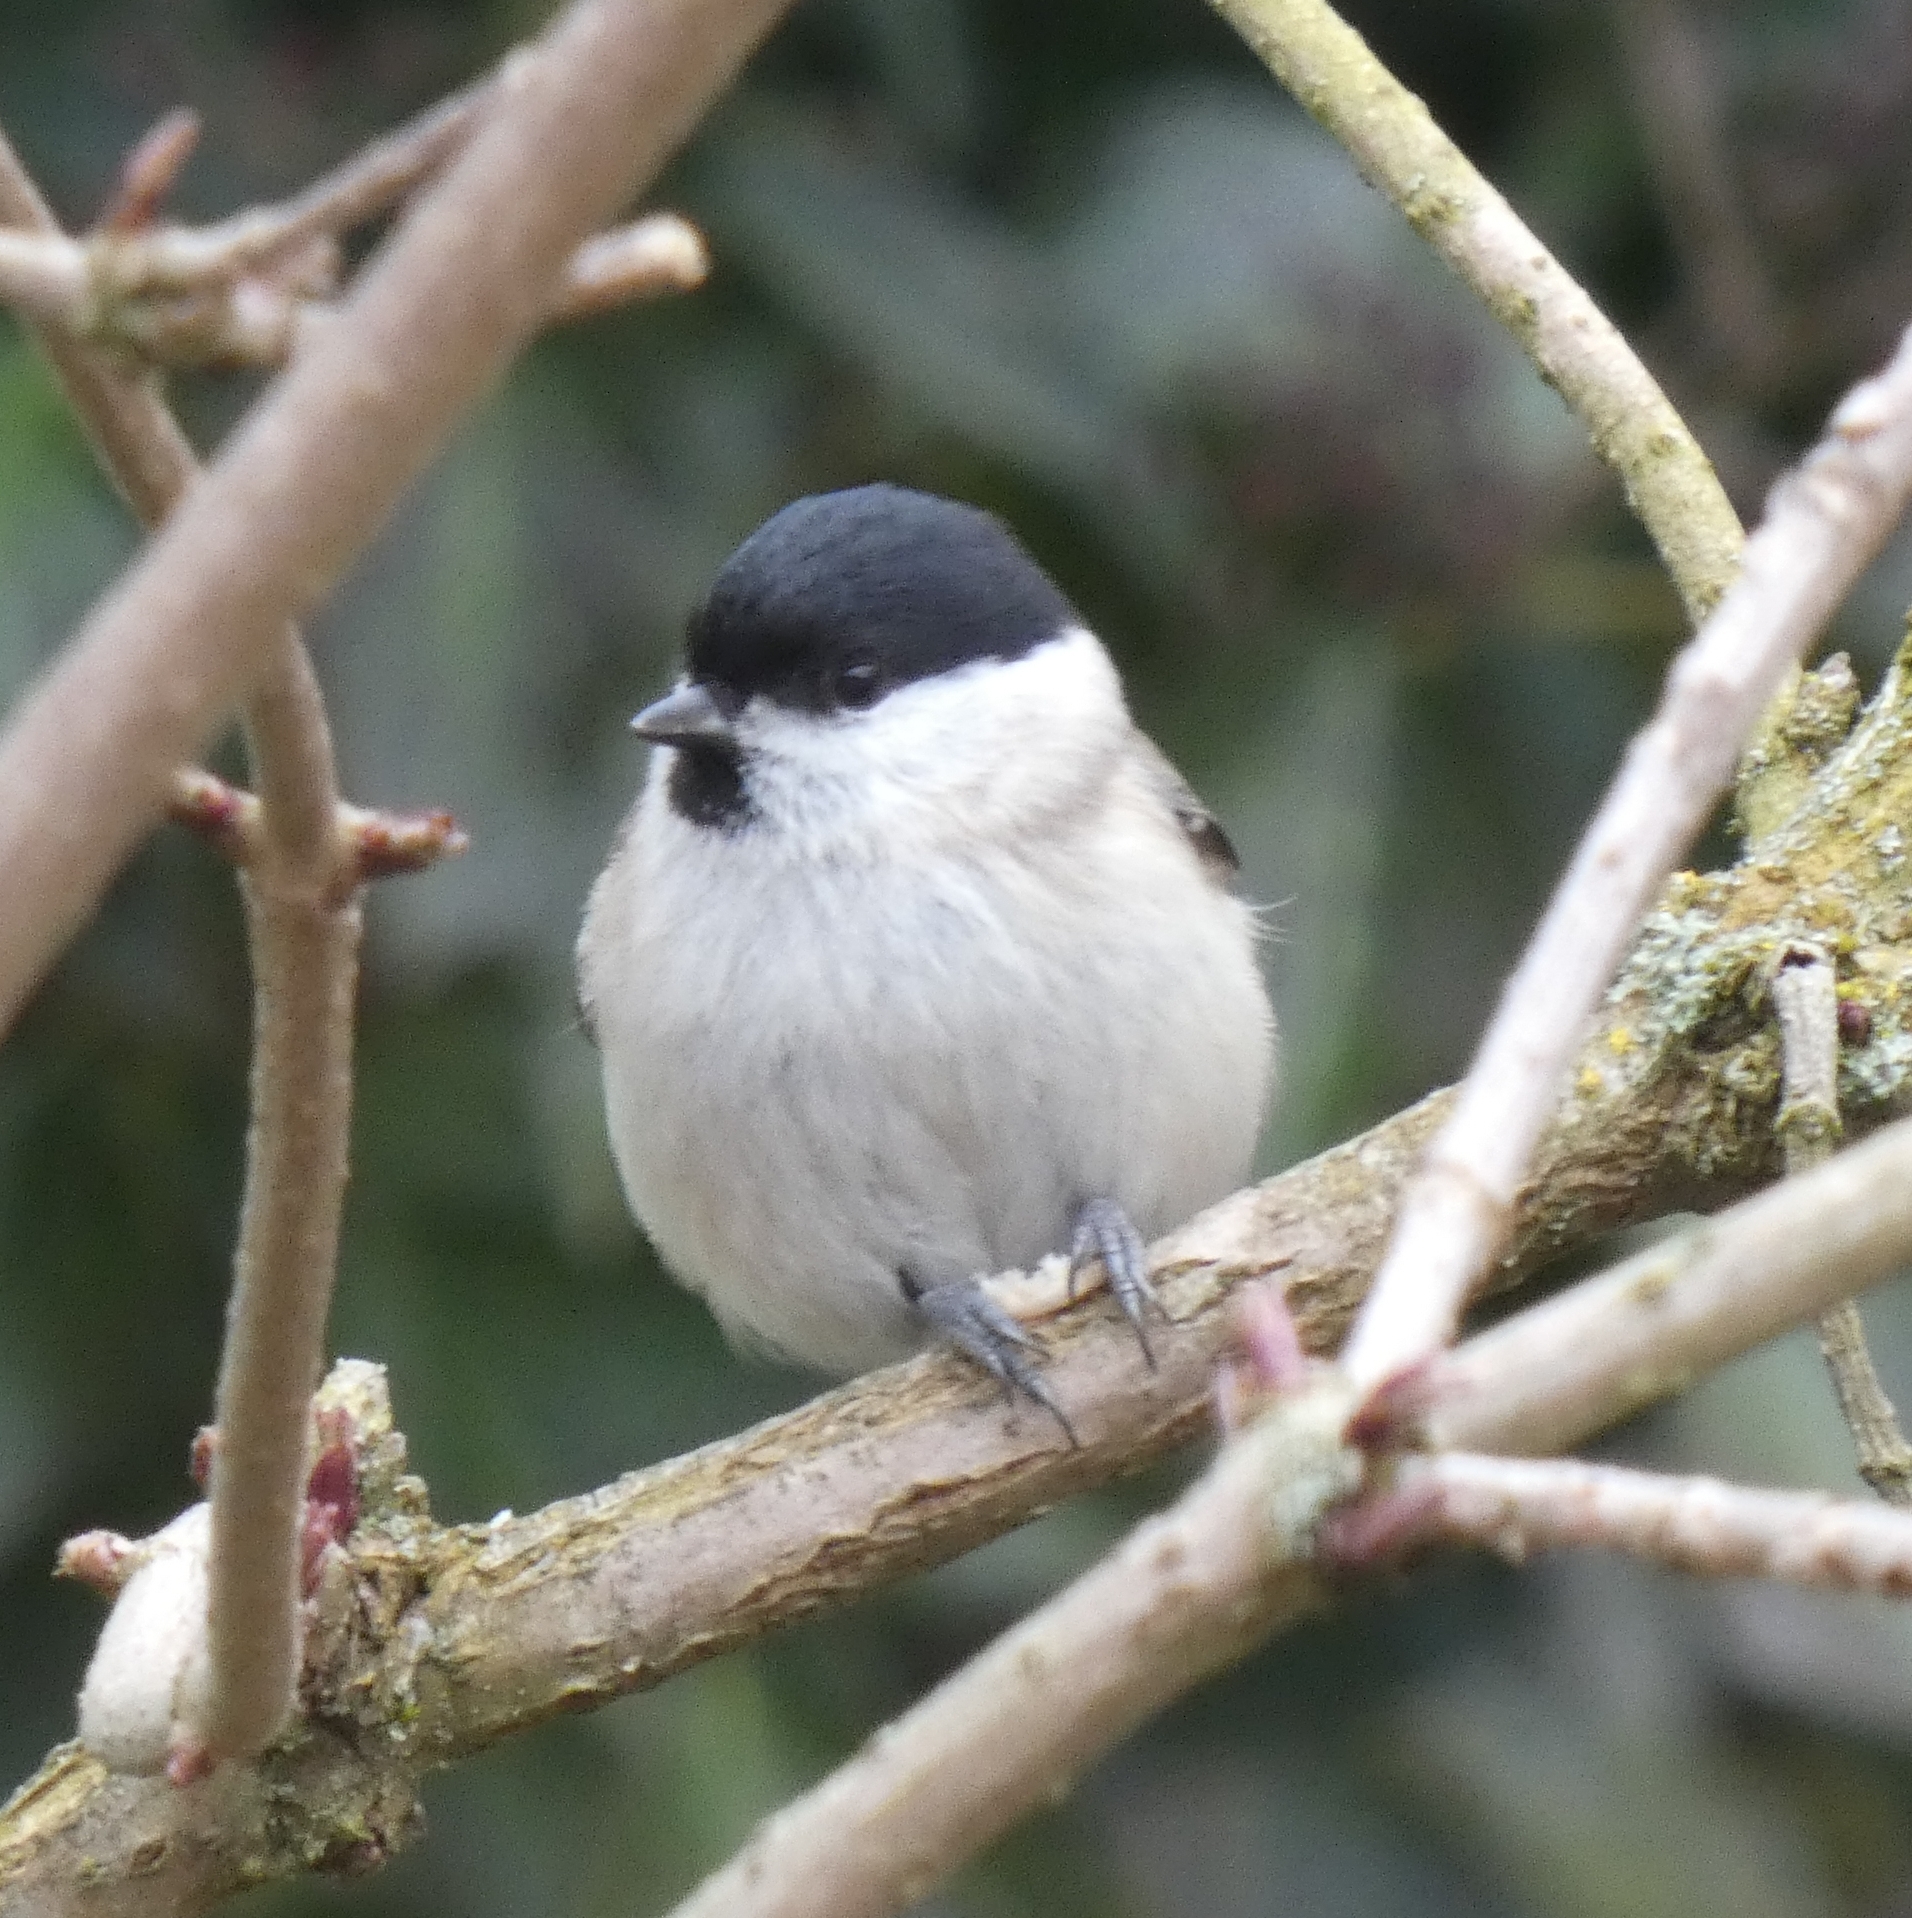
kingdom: Animalia
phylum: Chordata
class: Aves
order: Passeriformes
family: Paridae
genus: Poecile
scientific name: Poecile palustris
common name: Marsh tit
